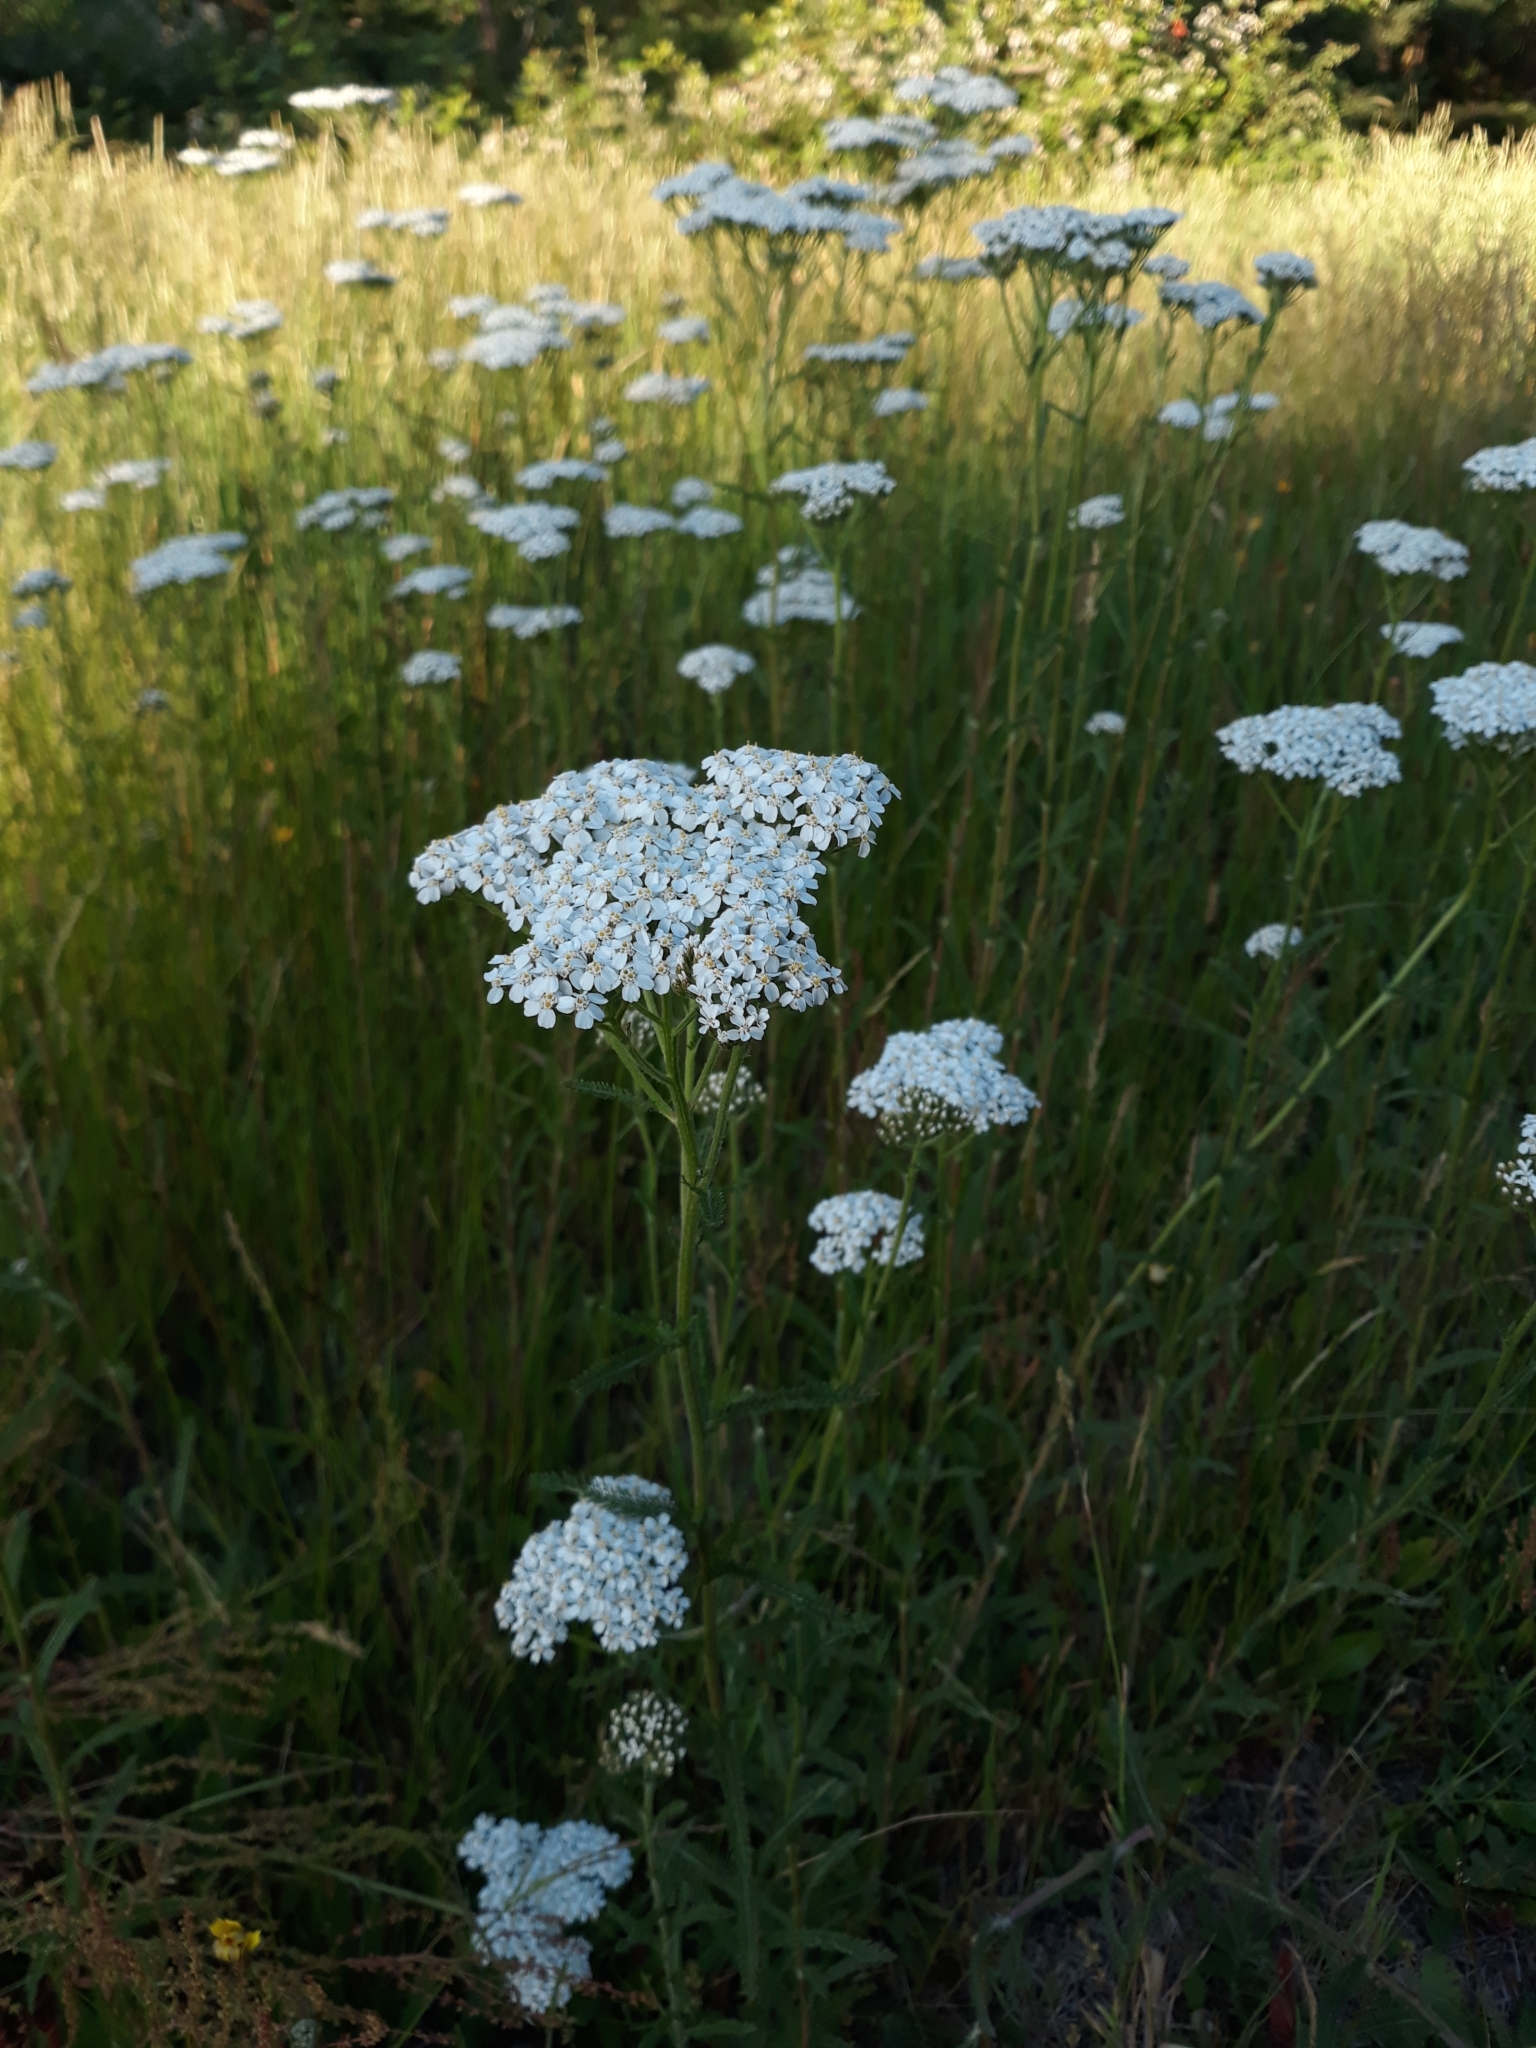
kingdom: Plantae
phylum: Tracheophyta
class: Magnoliopsida
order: Asterales
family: Asteraceae
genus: Achillea
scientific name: Achillea millefolium
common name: Yarrow
